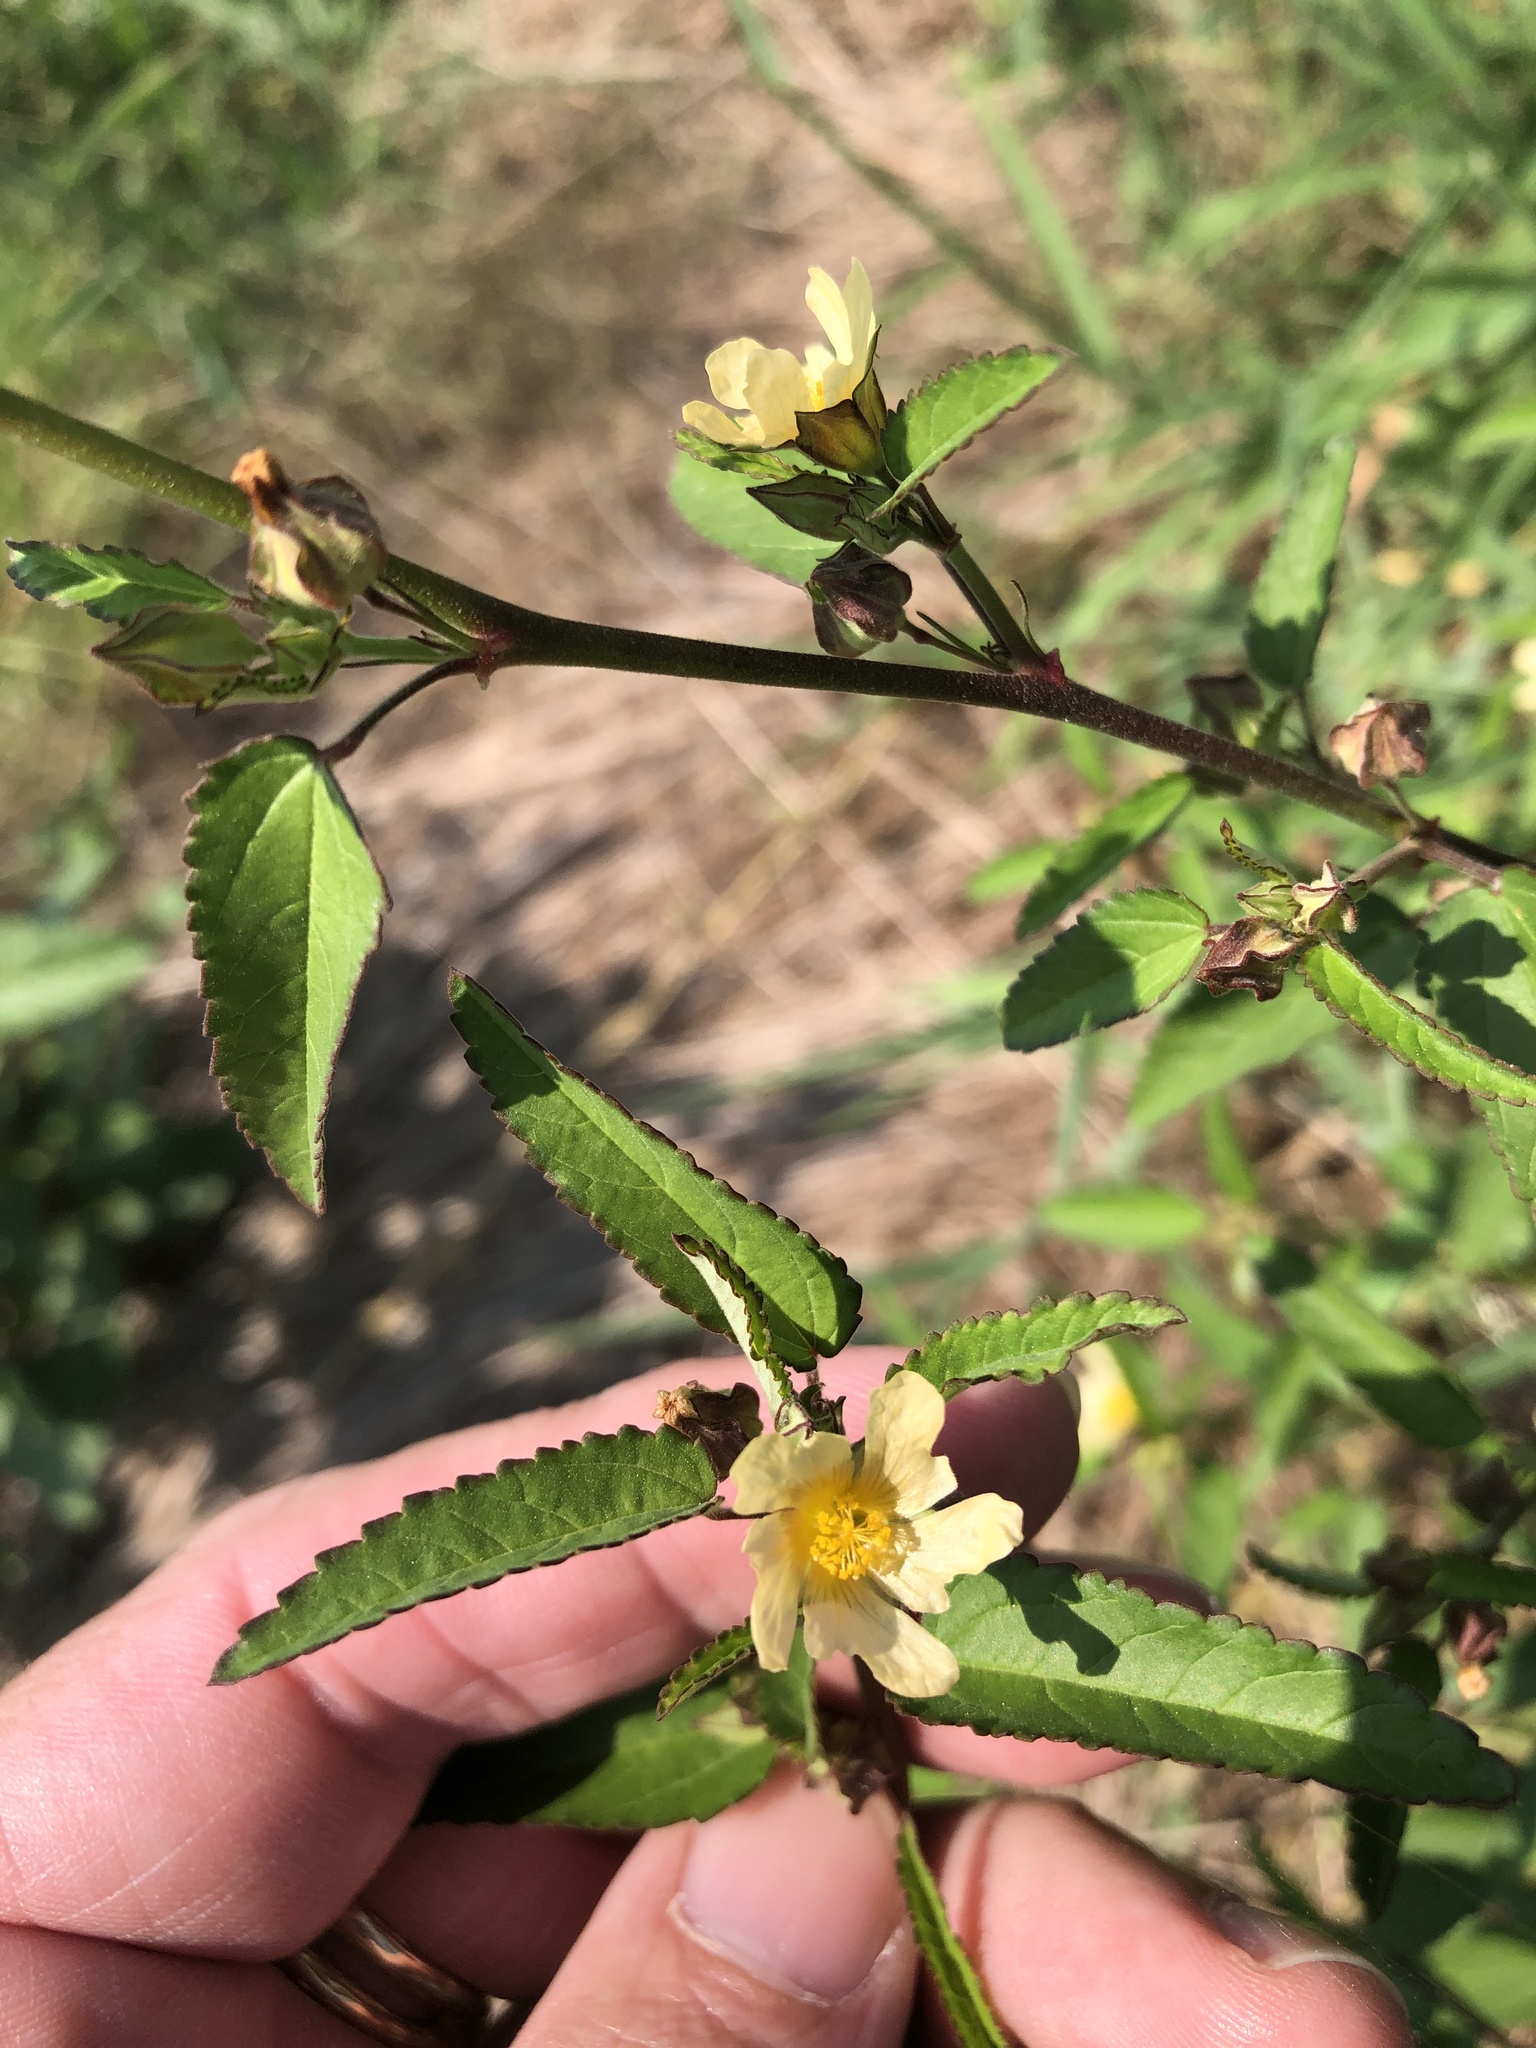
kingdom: Plantae
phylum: Tracheophyta
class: Magnoliopsida
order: Malvales
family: Malvaceae
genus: Sida
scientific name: Sida spinosa
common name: Prickly fanpetals
